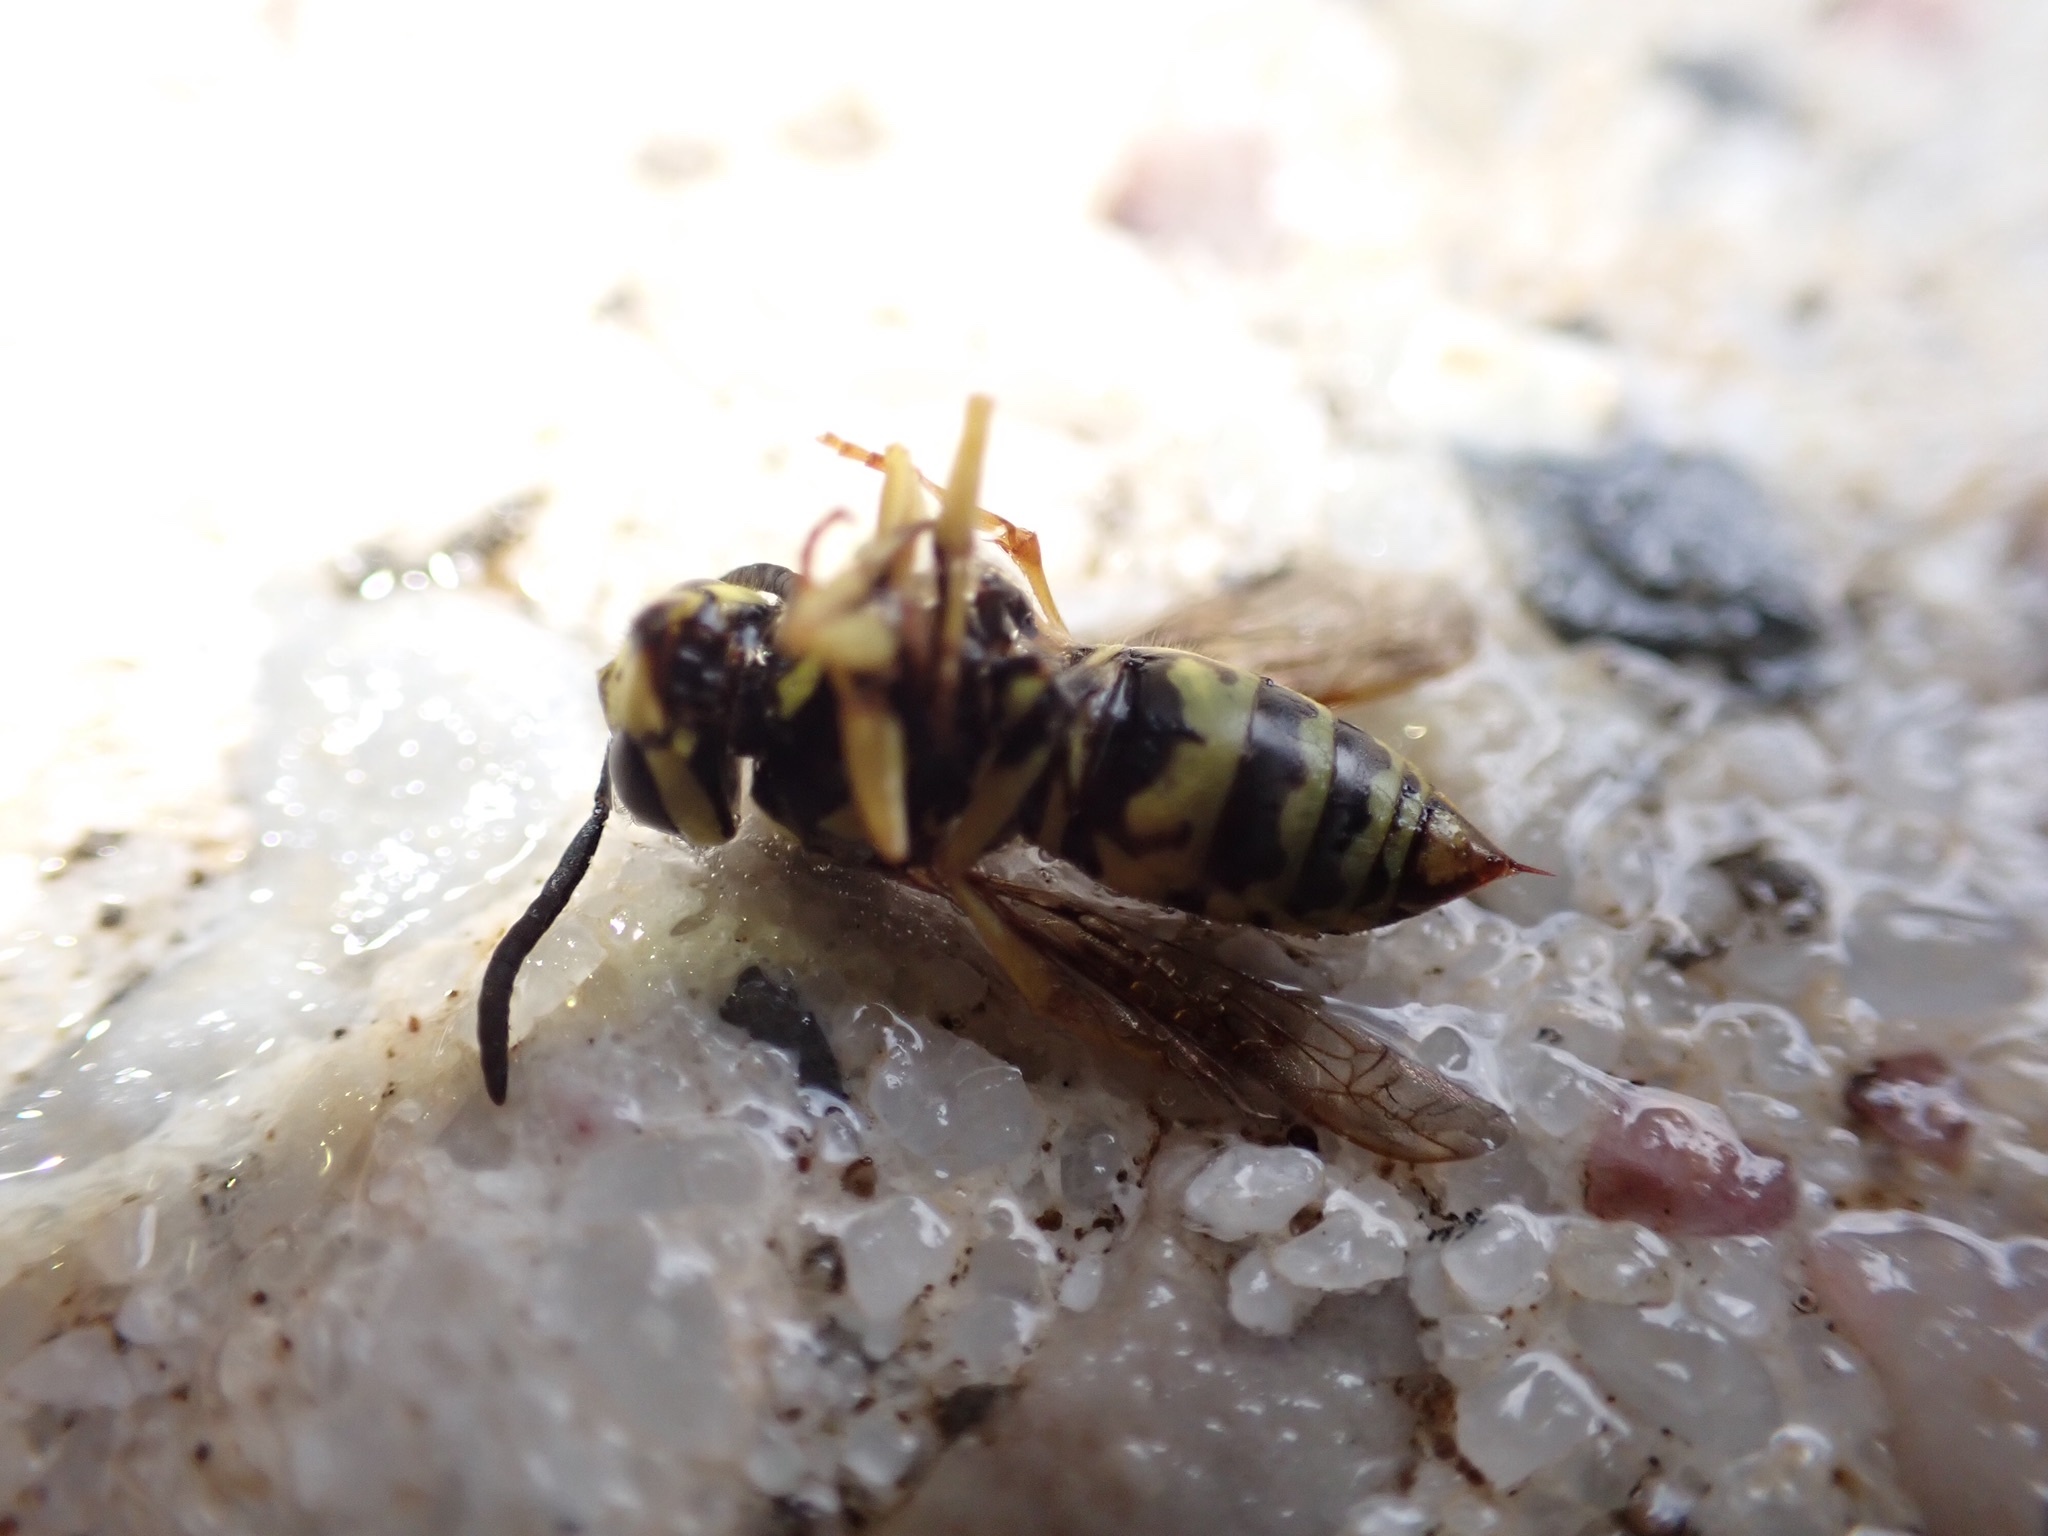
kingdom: Animalia
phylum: Arthropoda
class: Insecta
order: Hymenoptera
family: Vespidae
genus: Vespula
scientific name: Vespula maculifrons
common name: Eastern yellowjacket
